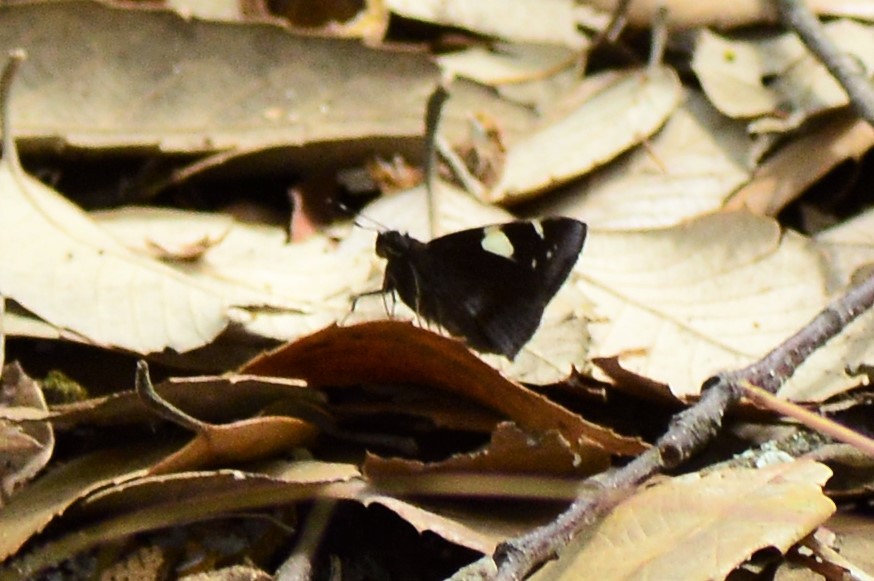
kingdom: Animalia
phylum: Arthropoda
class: Insecta
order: Lepidoptera
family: Hesperiidae
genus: Notocrypta
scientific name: Notocrypta feisthamelii
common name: Spotted demon
